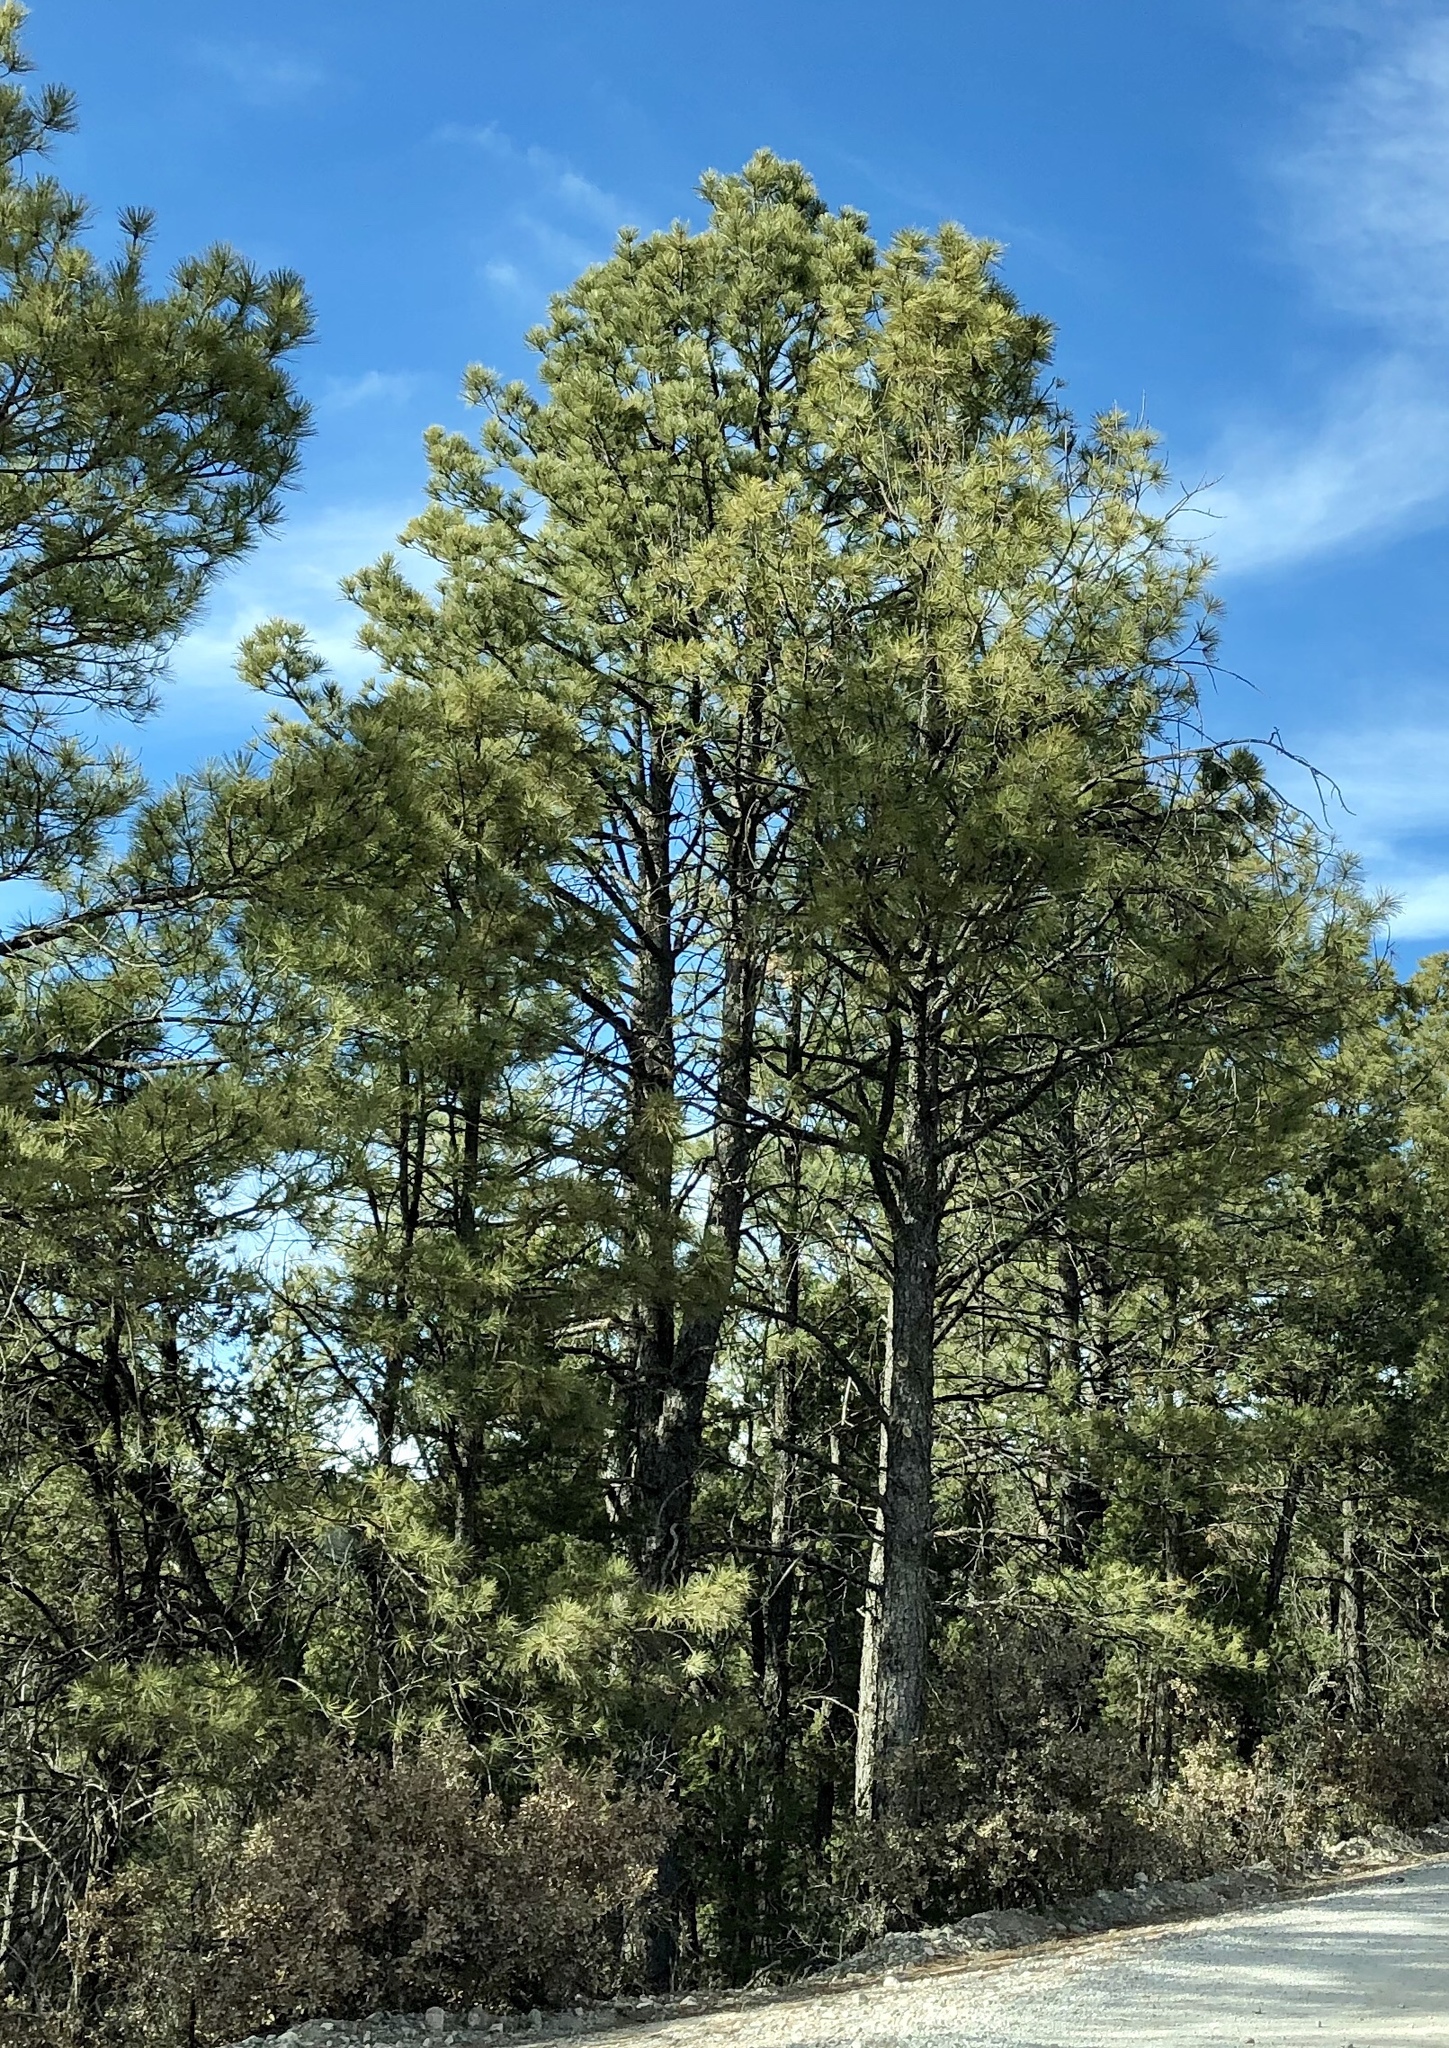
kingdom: Plantae
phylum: Tracheophyta
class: Pinopsida
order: Pinales
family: Pinaceae
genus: Pinus
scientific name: Pinus ponderosa
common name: Western yellow-pine
